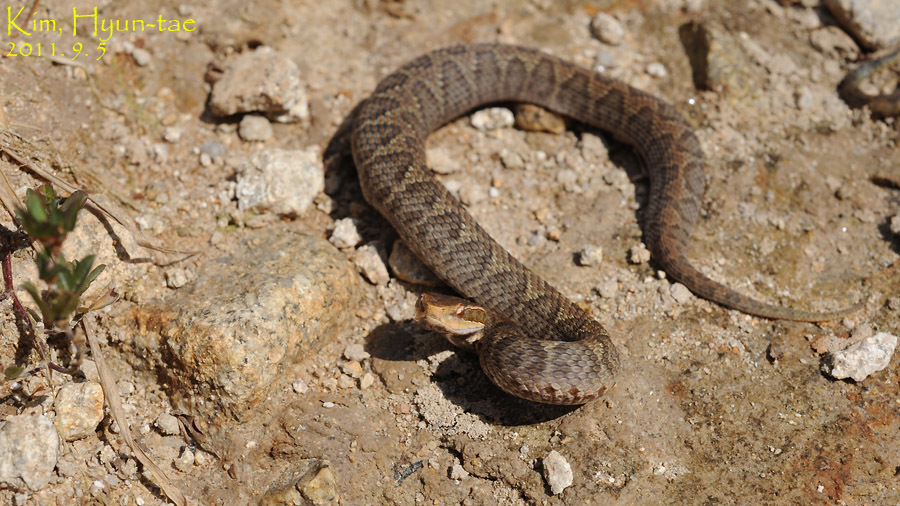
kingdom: Animalia
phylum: Chordata
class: Squamata
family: Viperidae
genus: Gloydius
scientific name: Gloydius ussuriensis
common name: Ussuri mamushi
